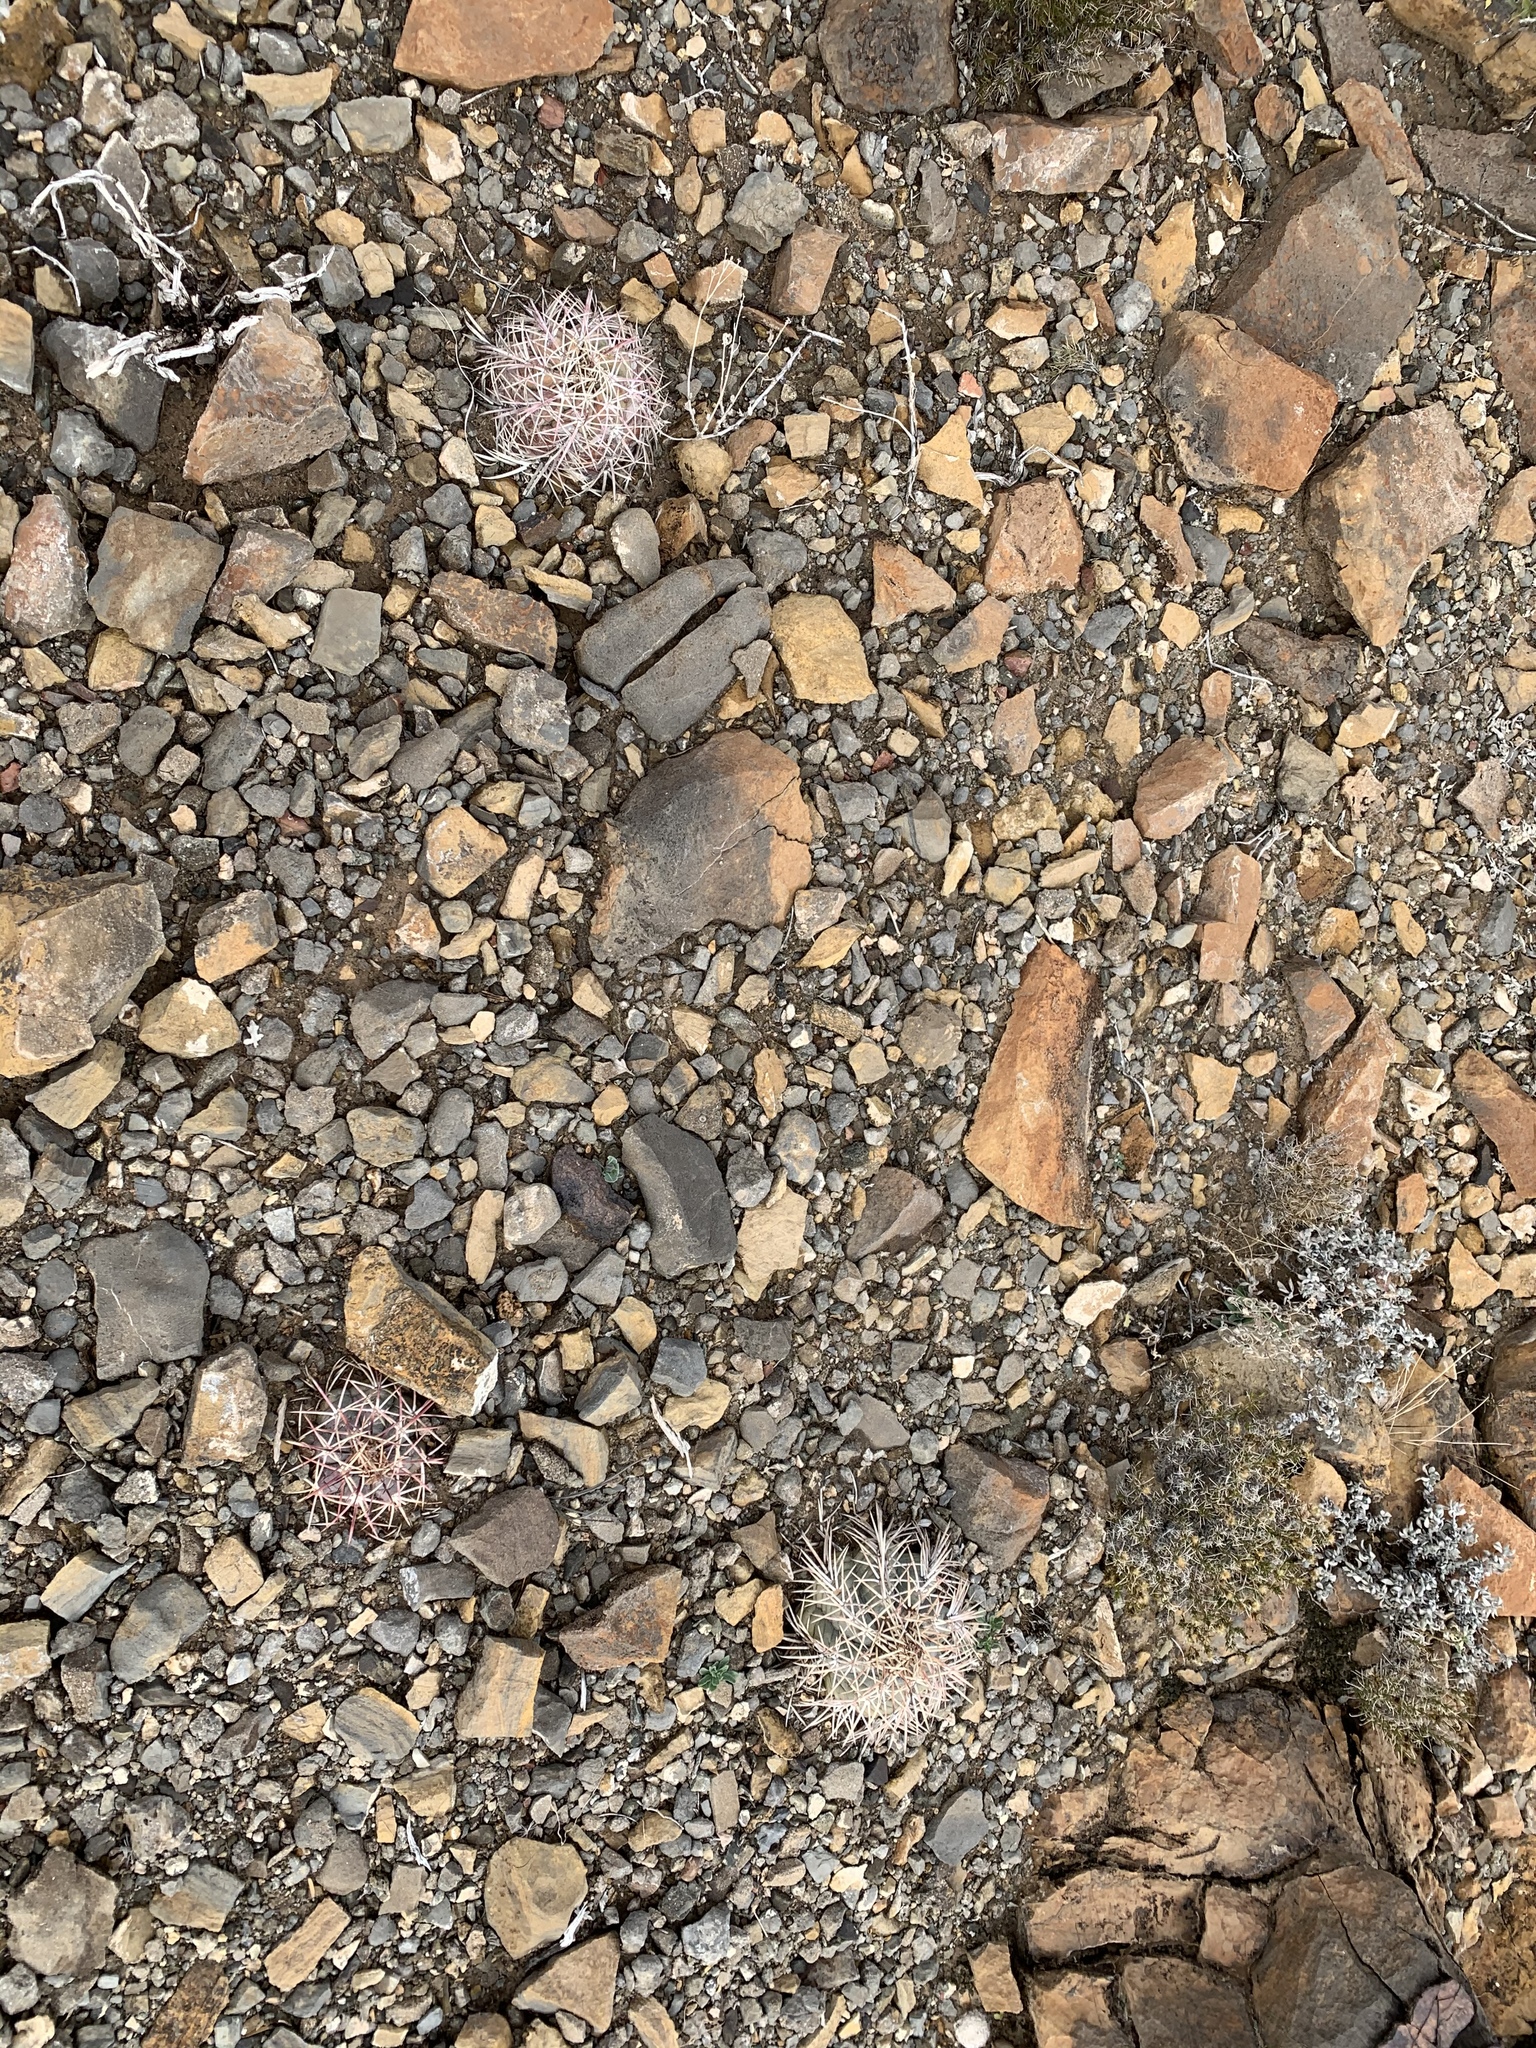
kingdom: Plantae
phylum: Tracheophyta
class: Magnoliopsida
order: Caryophyllales
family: Cactaceae
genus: Echinocactus
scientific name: Echinocactus horizonthalonius
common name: Devilshead
